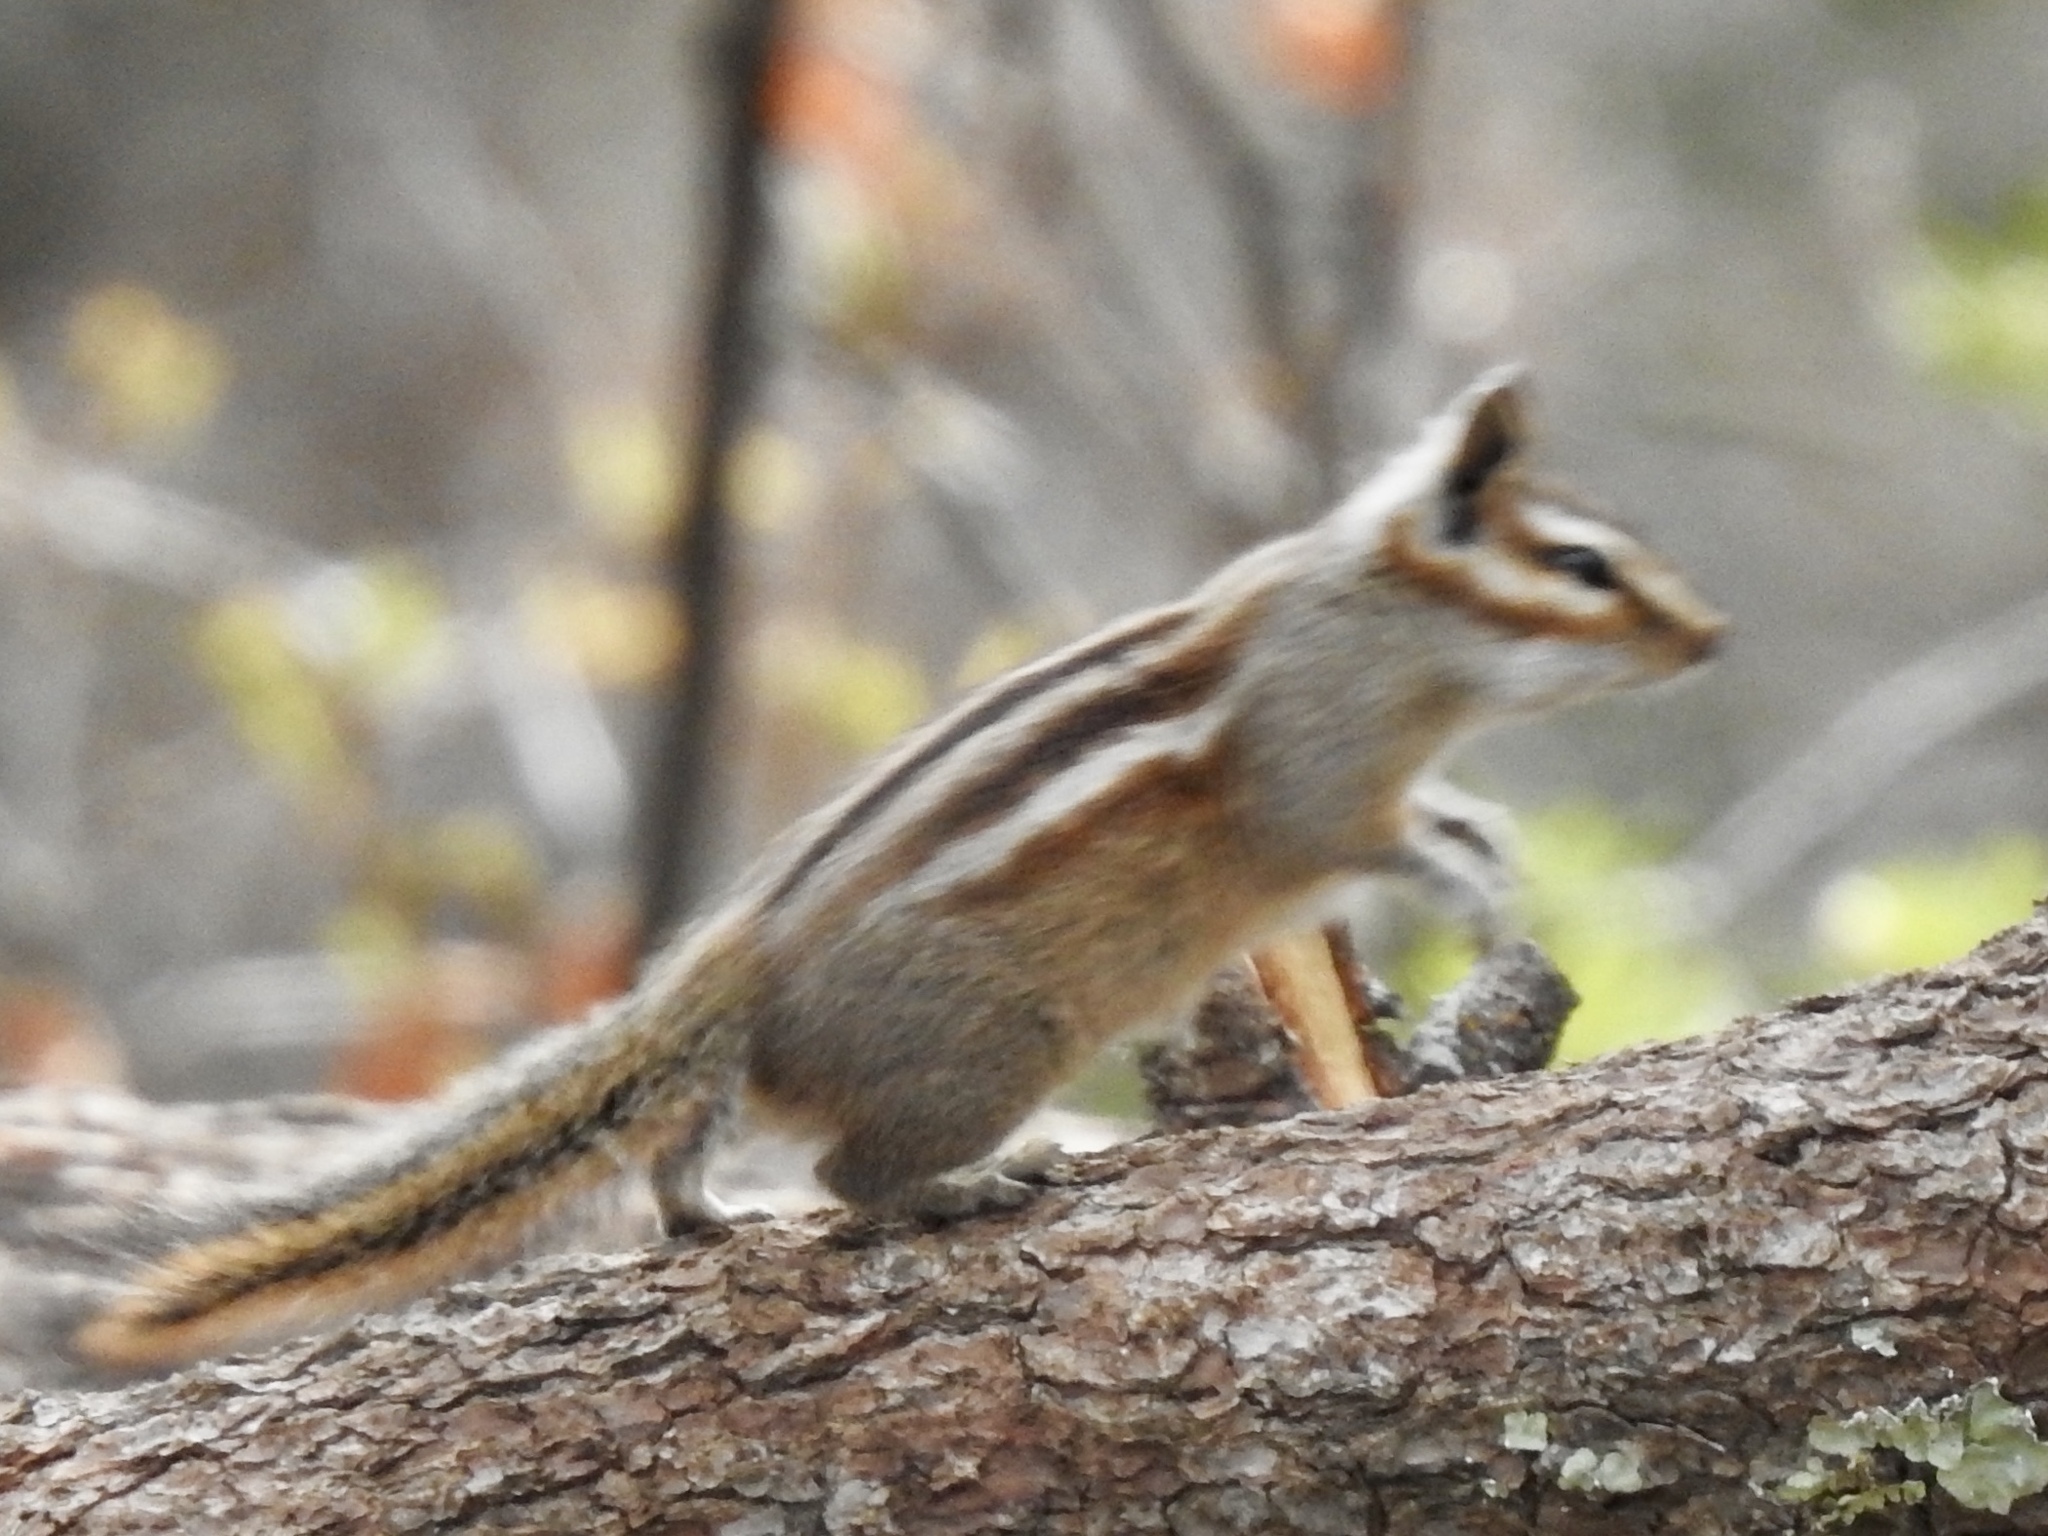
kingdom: Animalia
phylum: Chordata
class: Mammalia
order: Rodentia
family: Sciuridae
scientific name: Sciuridae
